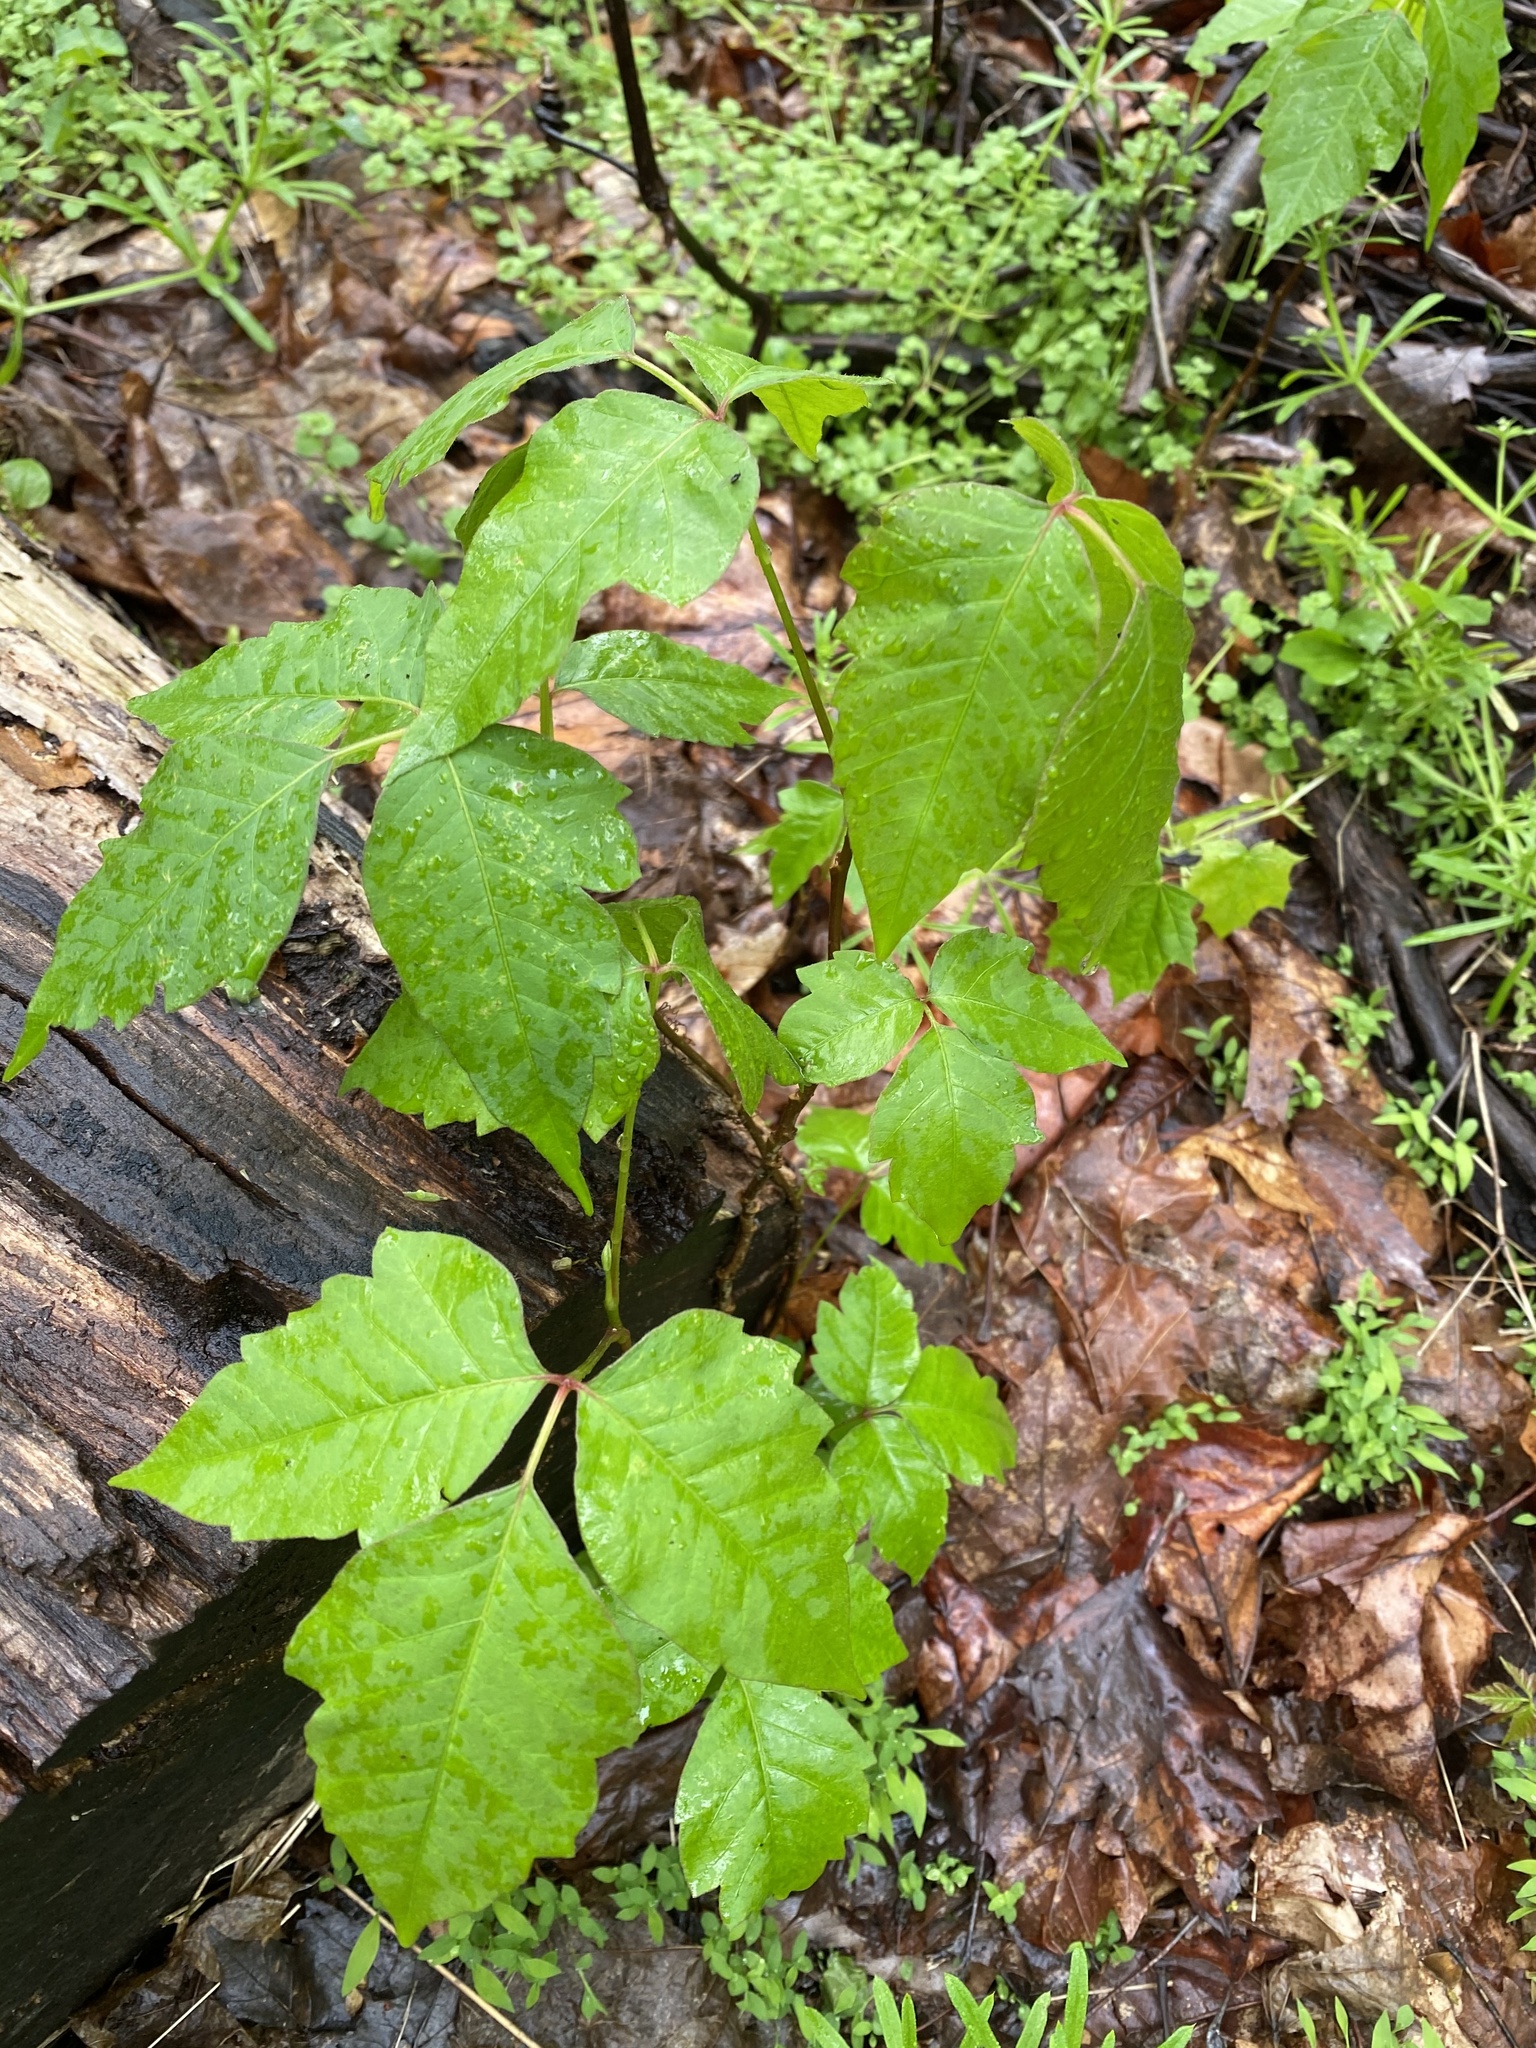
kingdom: Plantae
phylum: Tracheophyta
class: Magnoliopsida
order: Sapindales
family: Anacardiaceae
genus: Toxicodendron
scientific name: Toxicodendron radicans
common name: Poison ivy
